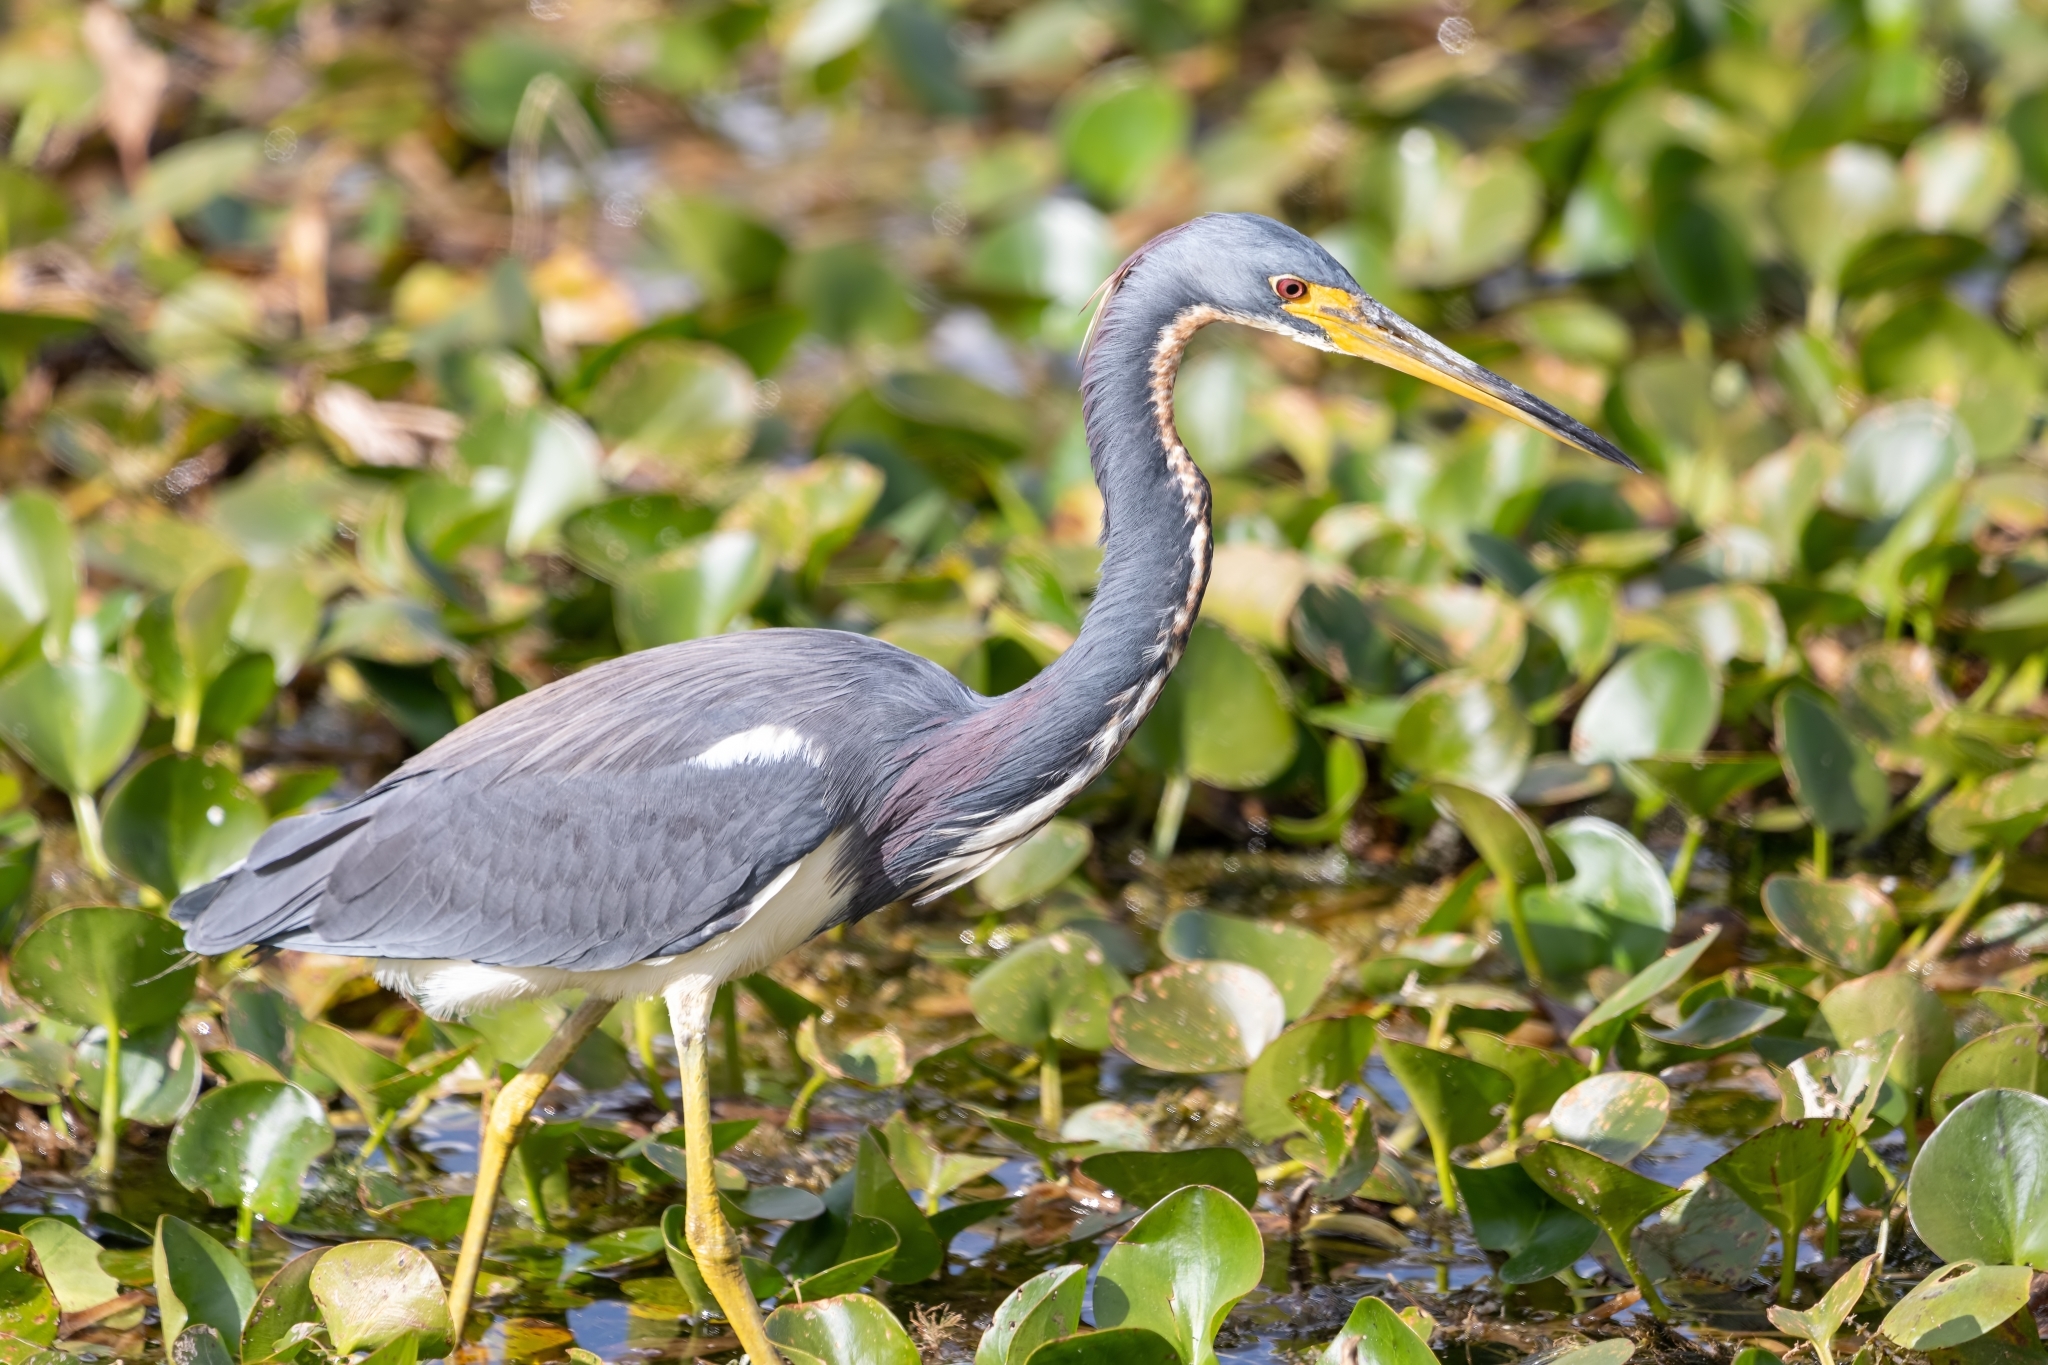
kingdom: Animalia
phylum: Chordata
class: Aves
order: Pelecaniformes
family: Ardeidae
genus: Egretta
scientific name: Egretta tricolor
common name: Tricolored heron
